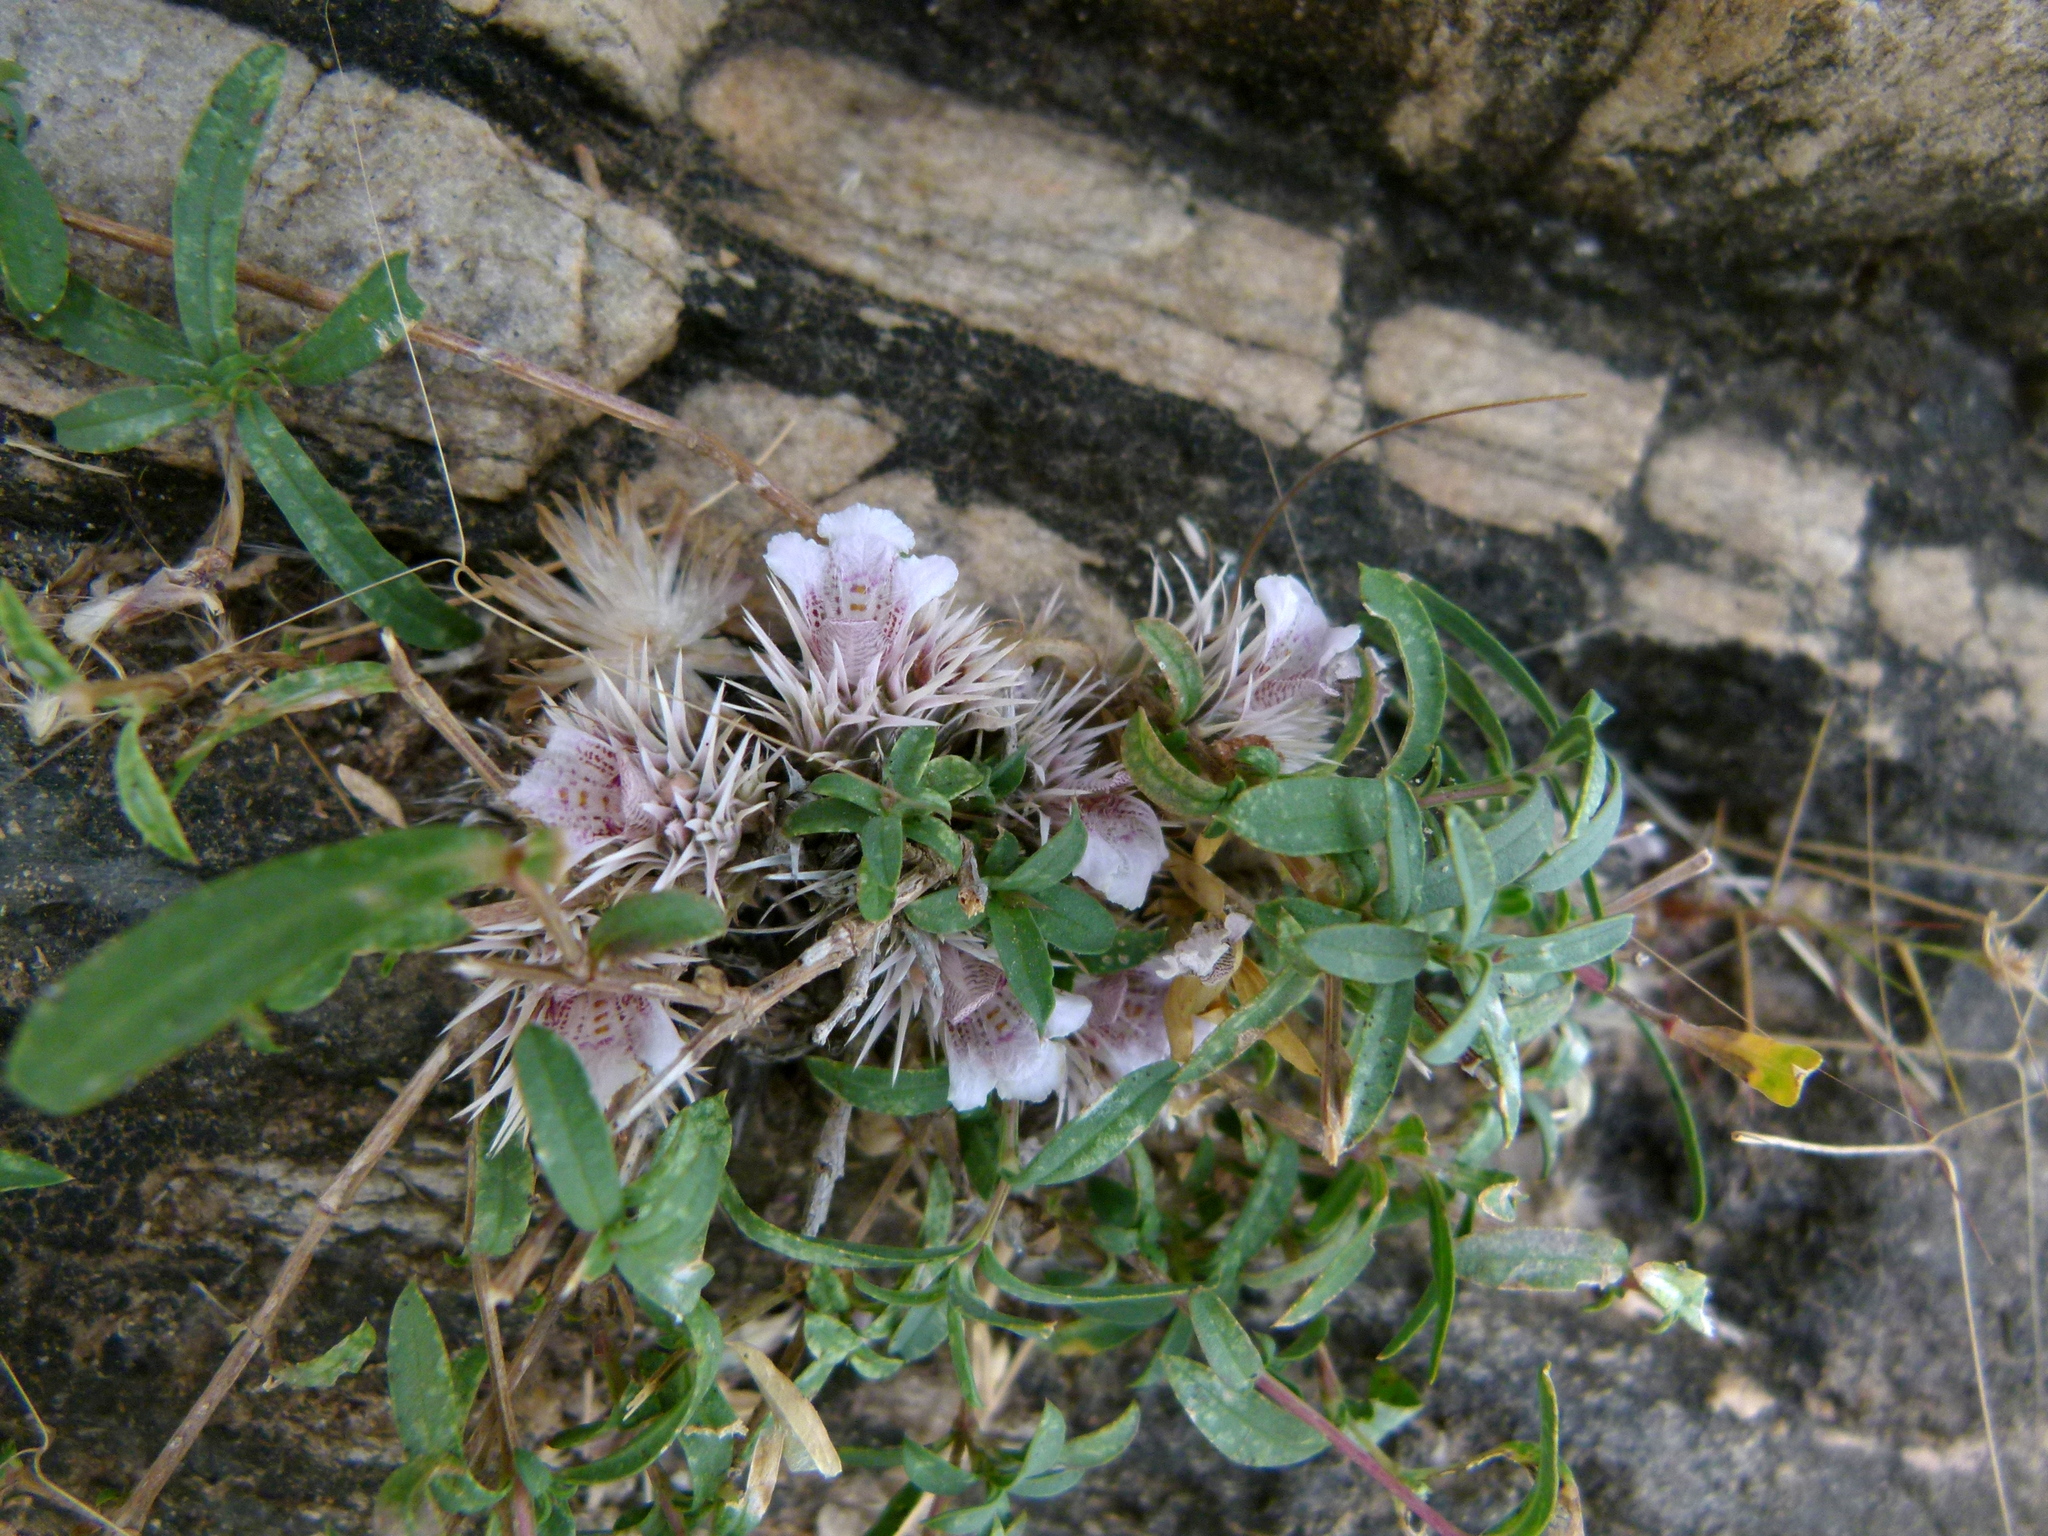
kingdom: Plantae
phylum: Tracheophyta
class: Magnoliopsida
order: Lamiales
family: Acanthaceae
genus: Lepidagathis
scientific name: Lepidagathis trinervis
